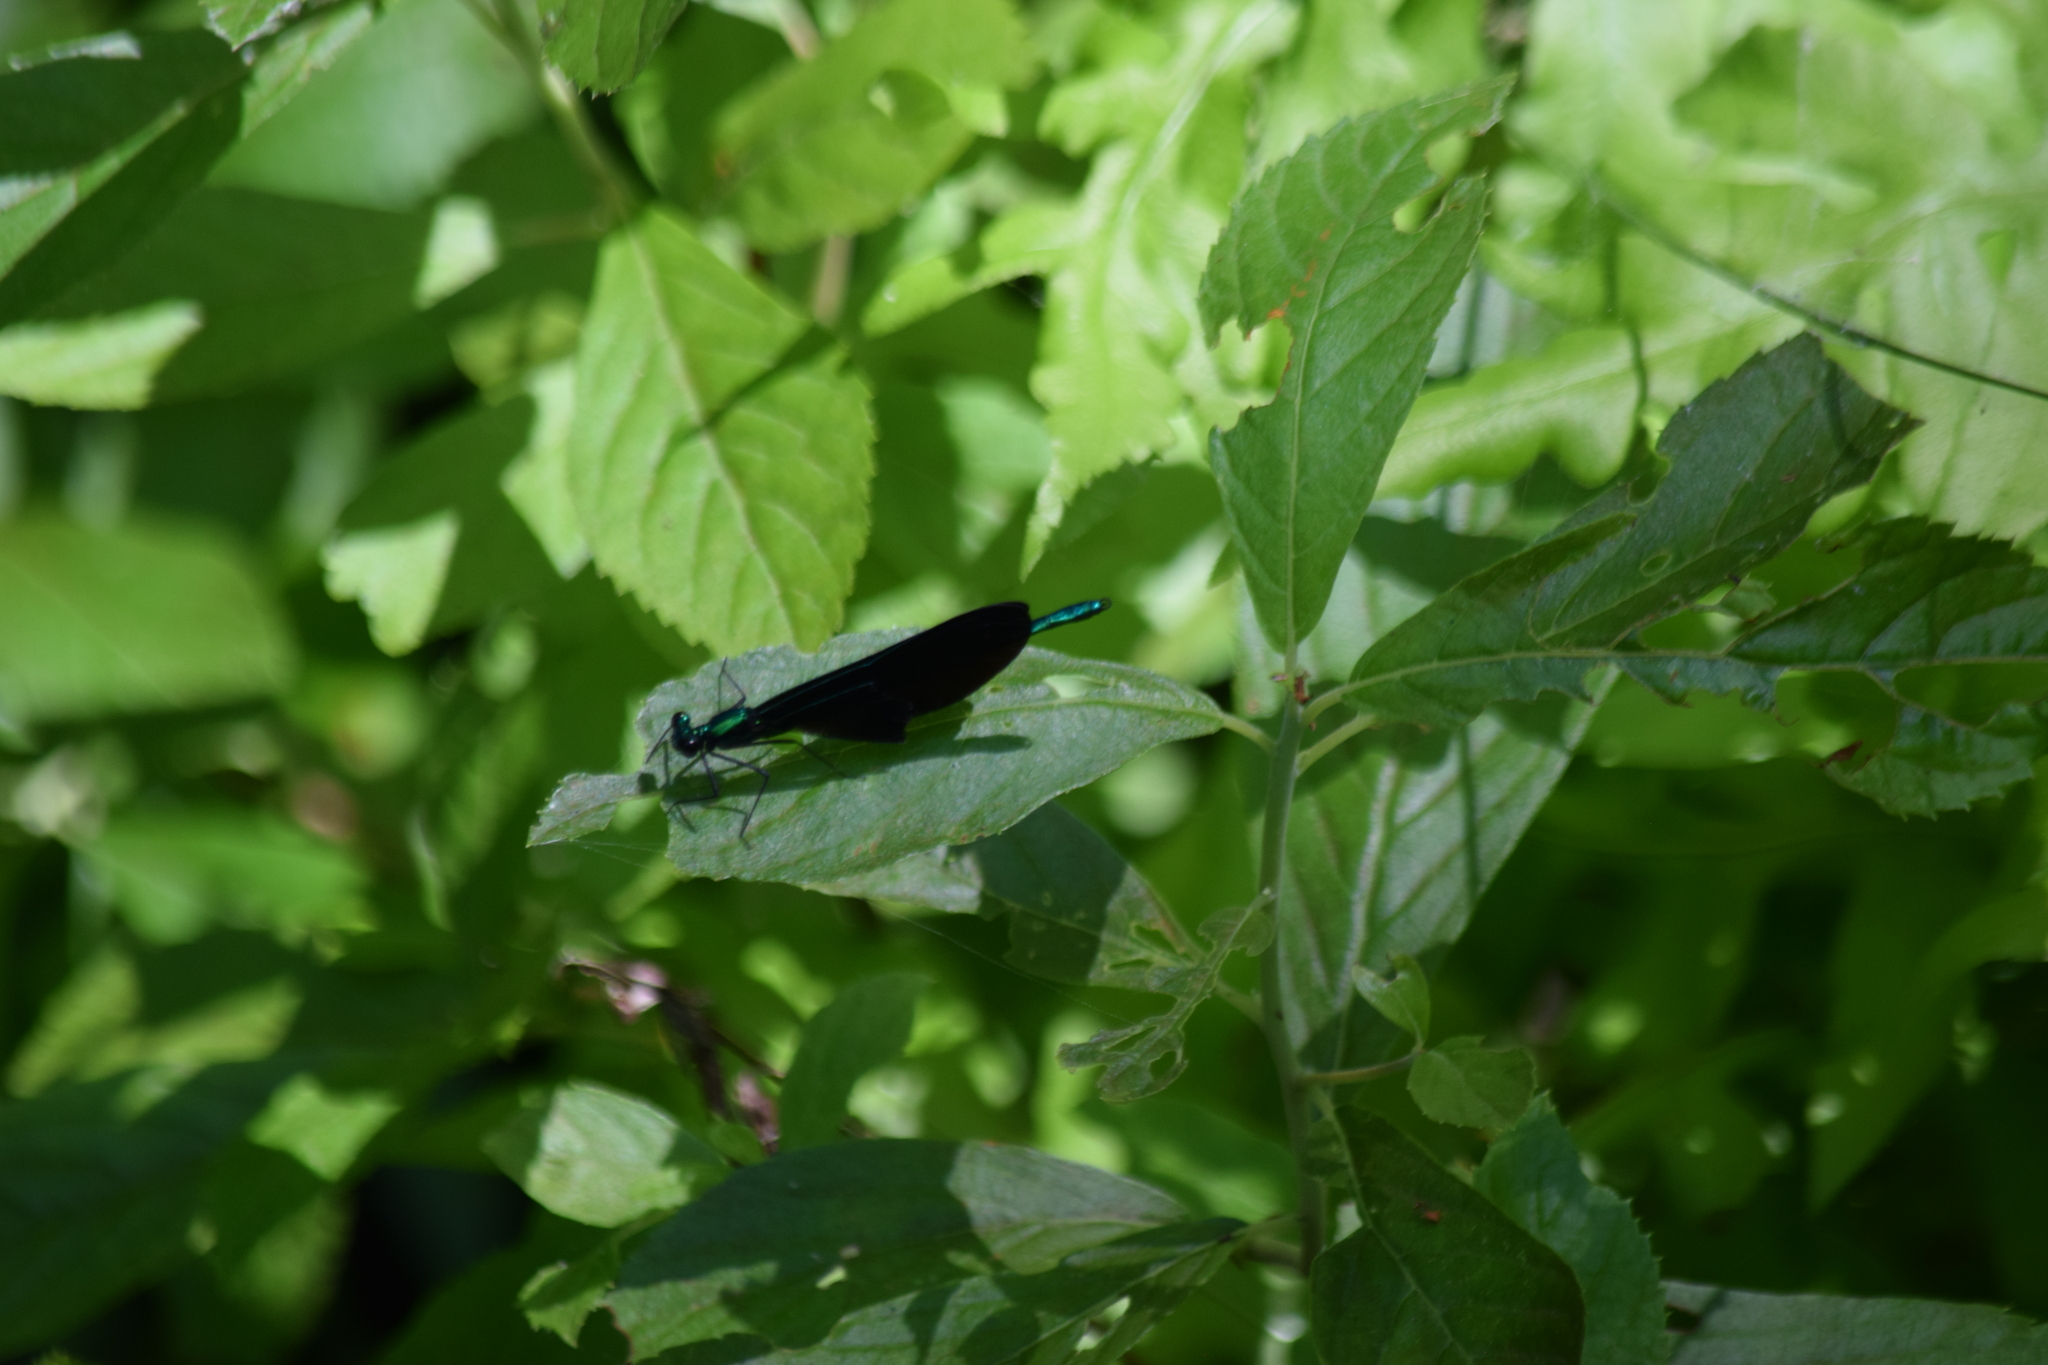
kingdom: Animalia
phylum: Arthropoda
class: Insecta
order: Odonata
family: Calopterygidae
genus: Calopteryx
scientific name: Calopteryx maculata
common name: Ebony jewelwing
